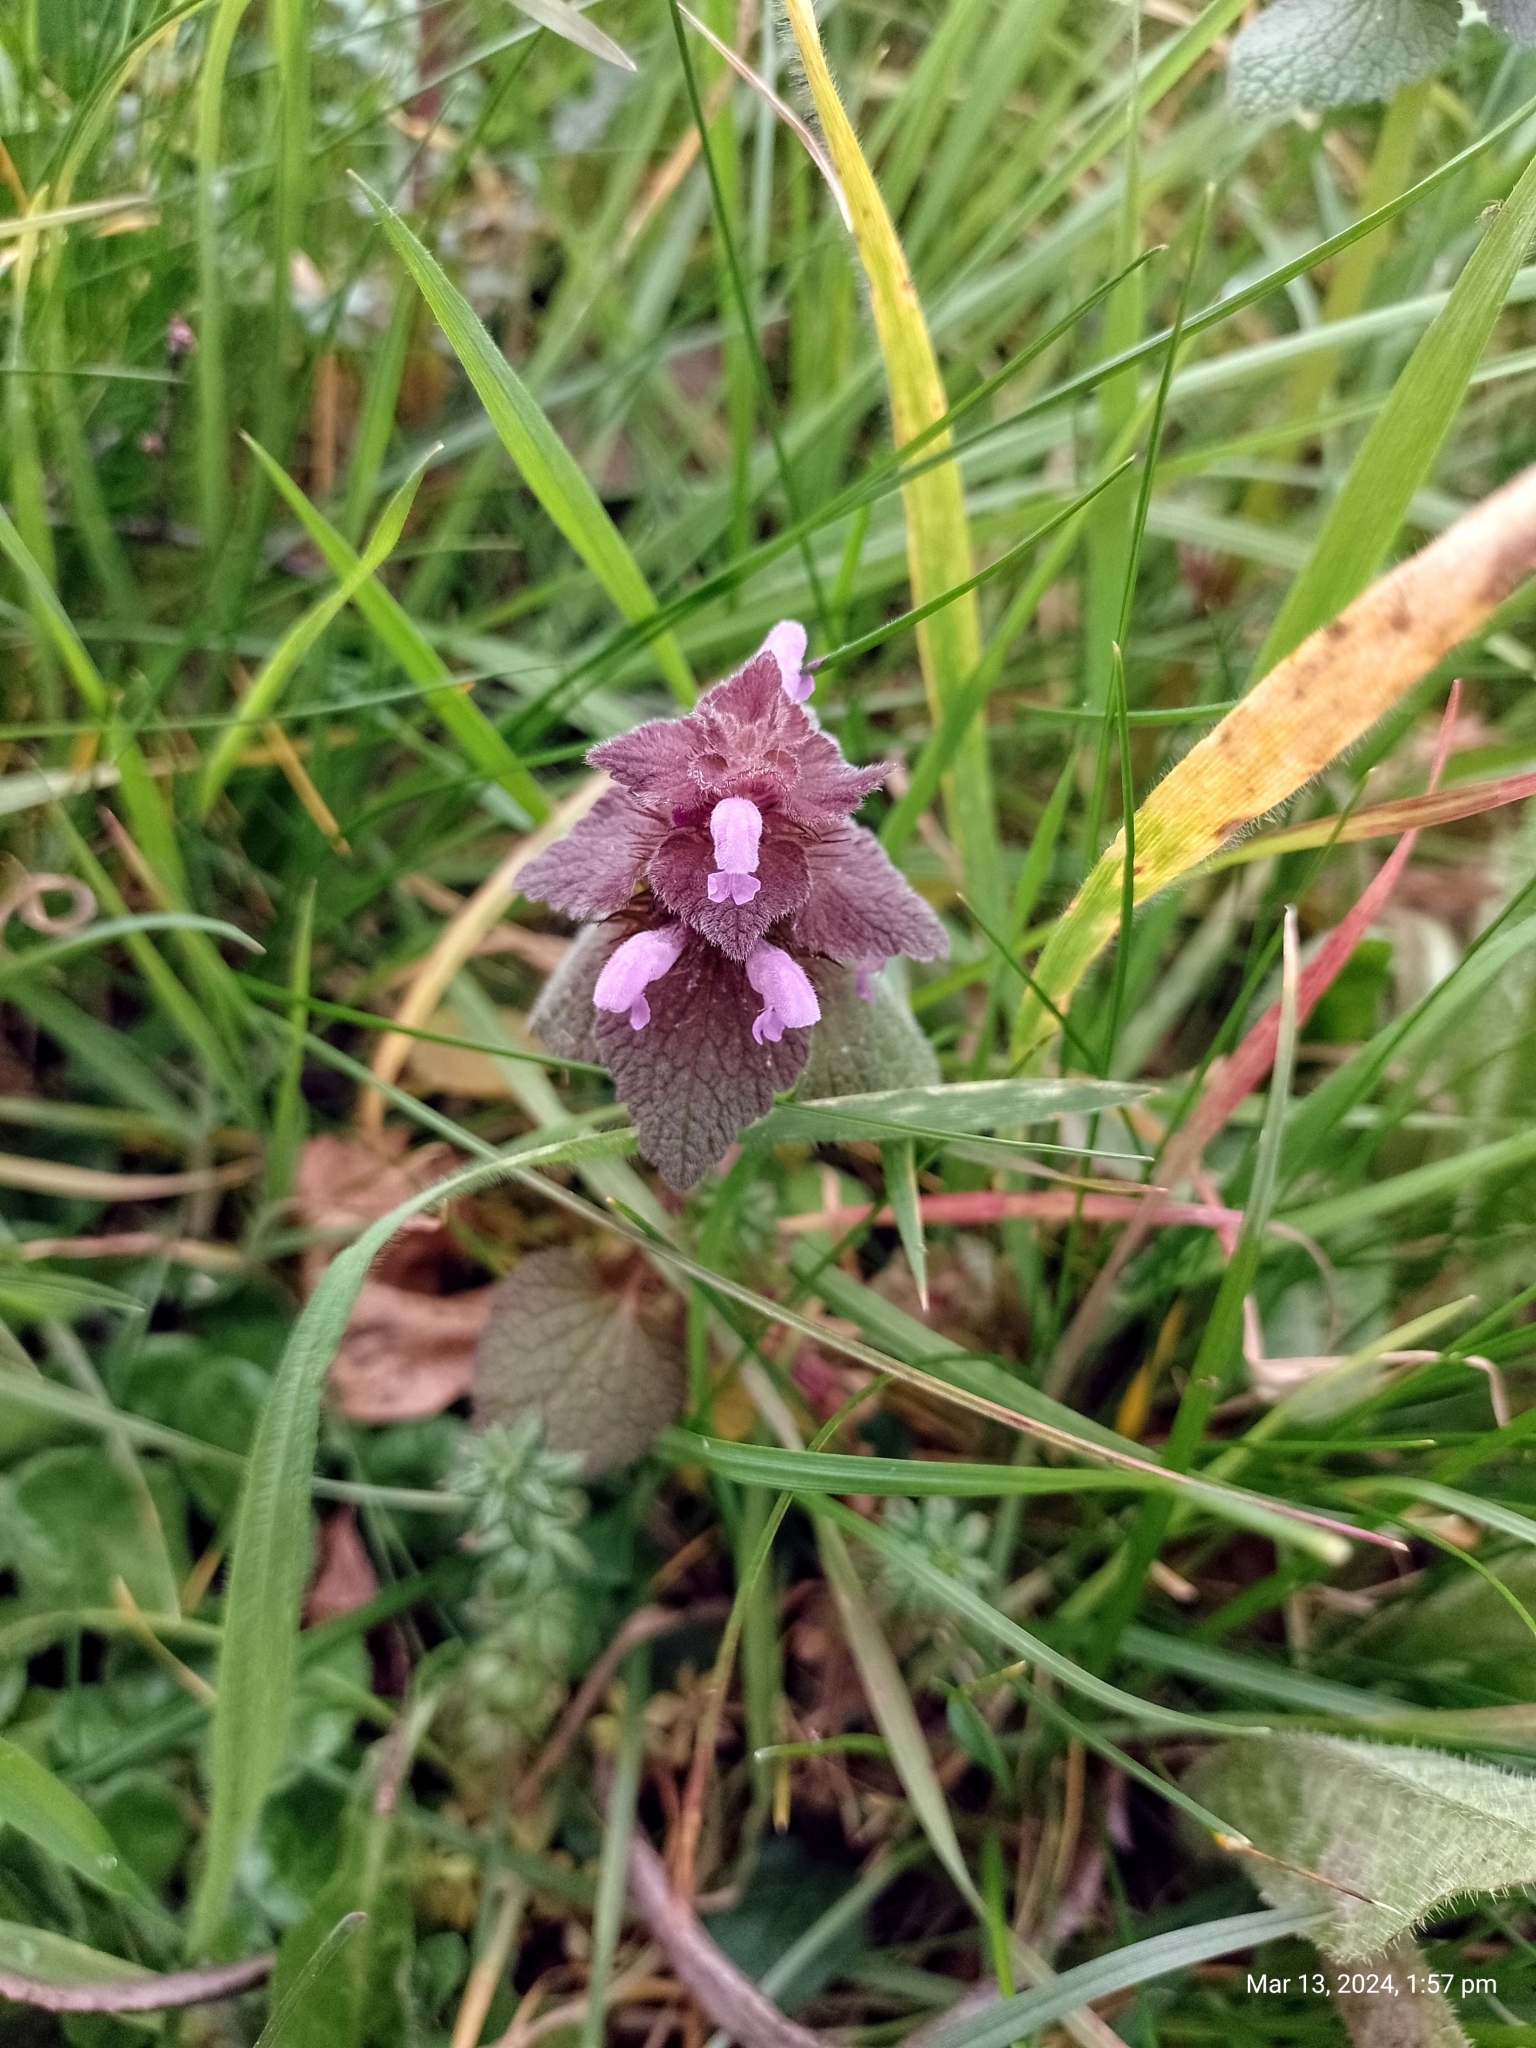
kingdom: Plantae
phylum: Tracheophyta
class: Magnoliopsida
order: Lamiales
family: Lamiaceae
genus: Lamium
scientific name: Lamium purpureum
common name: Red dead-nettle
